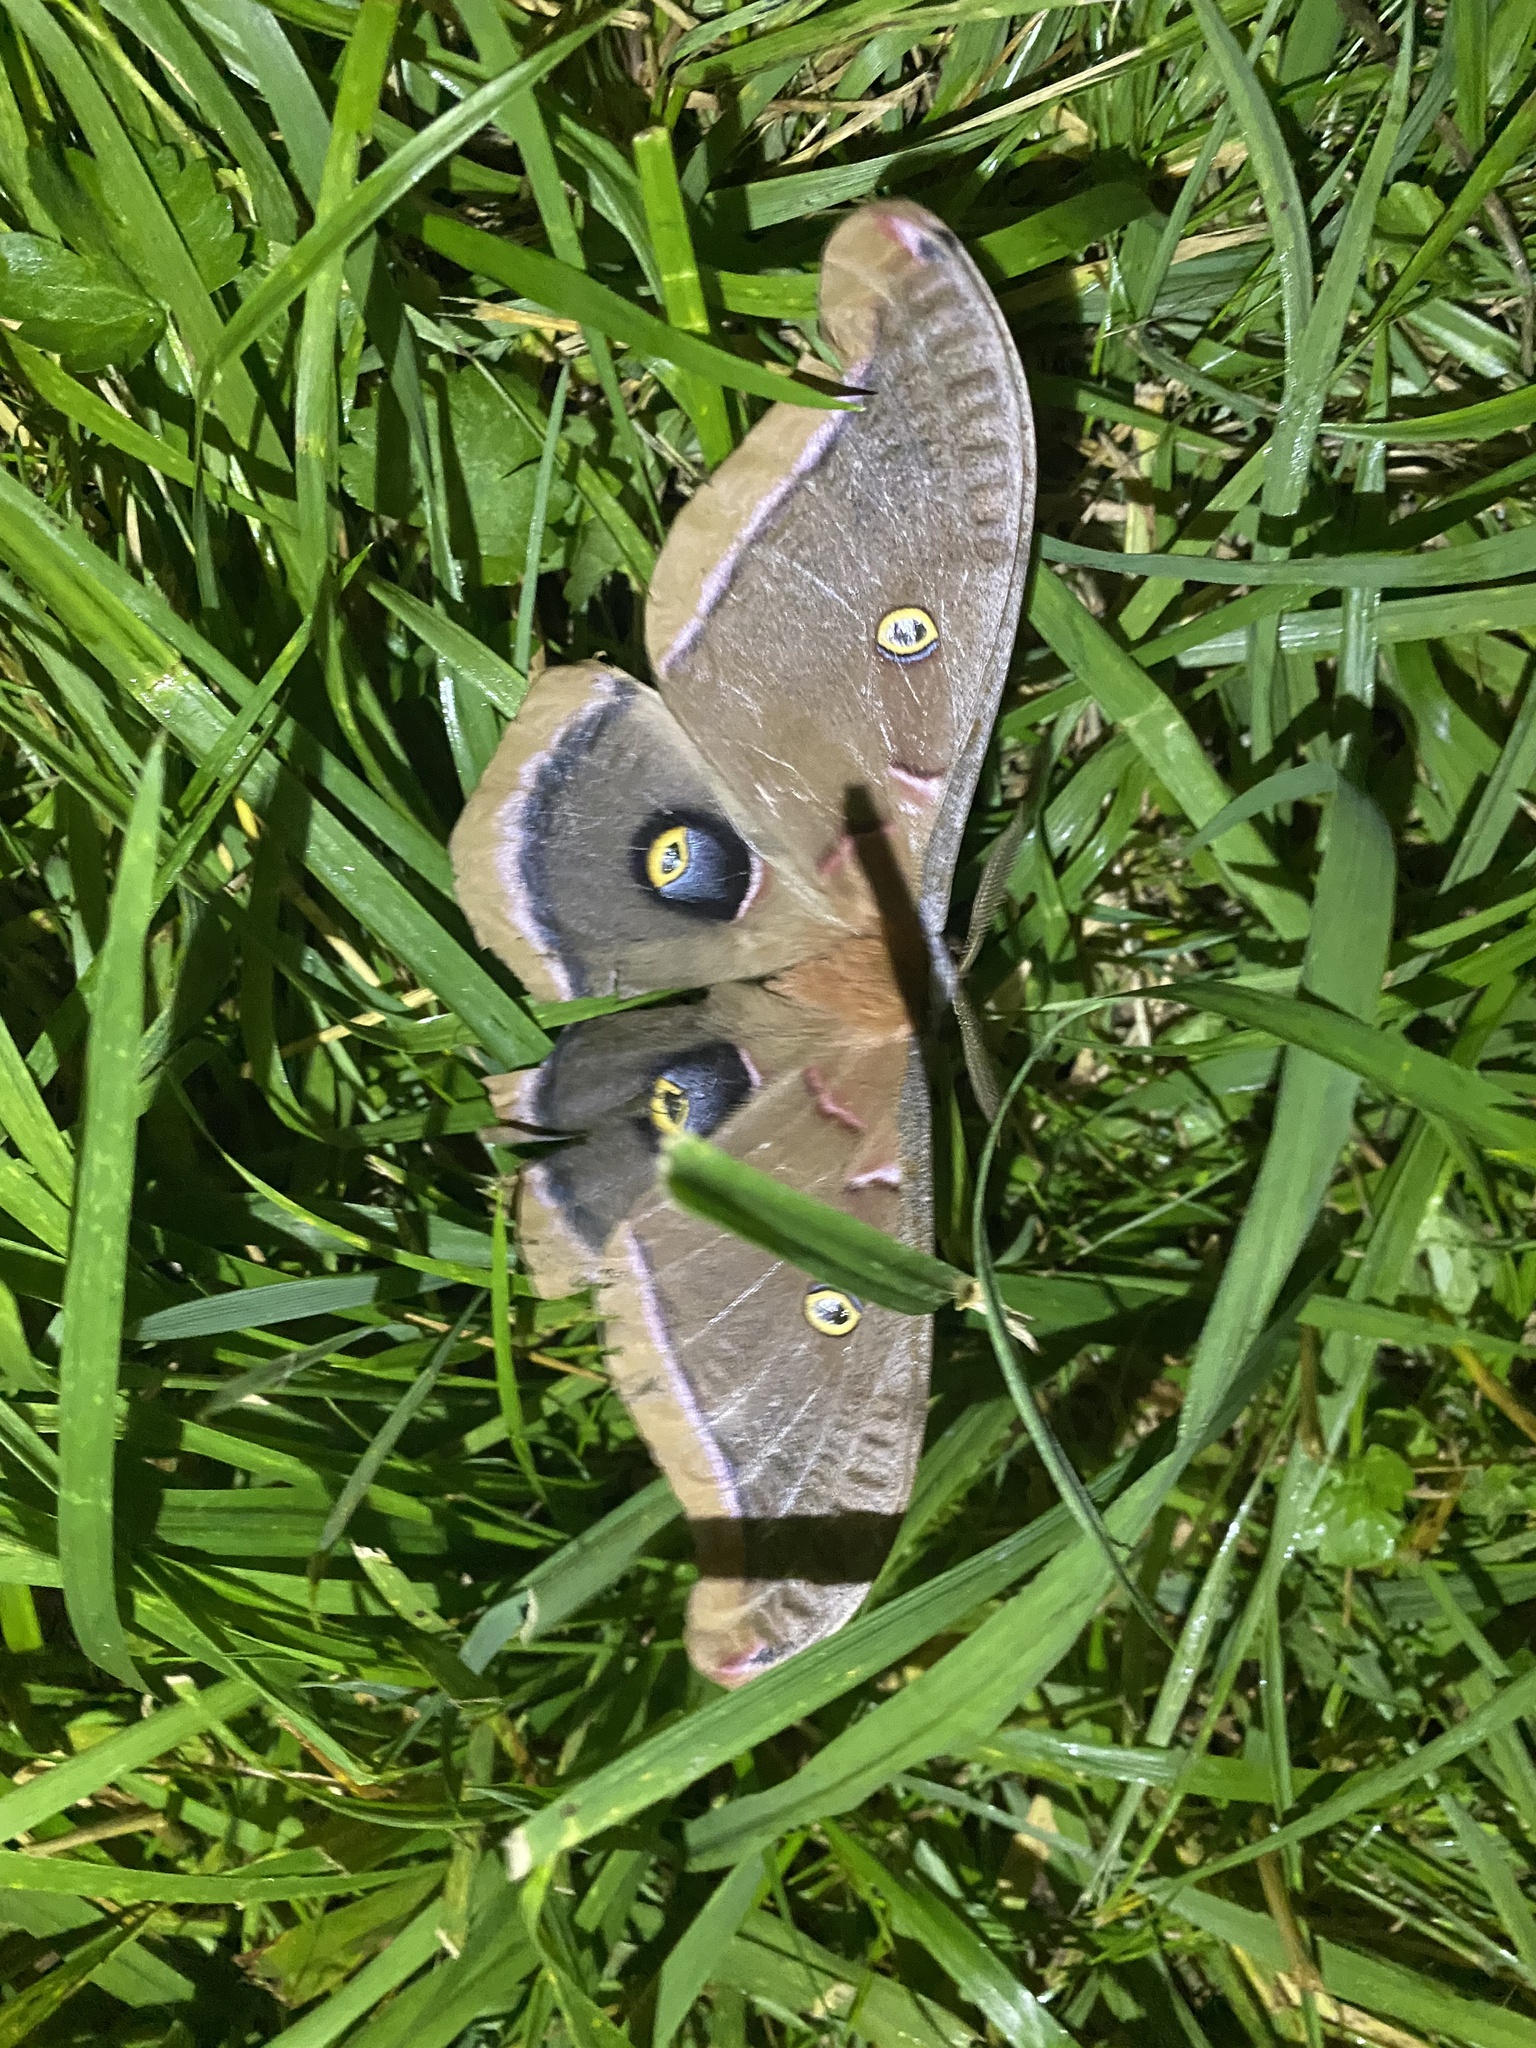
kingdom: Animalia
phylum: Arthropoda
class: Insecta
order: Lepidoptera
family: Saturniidae
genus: Antheraea
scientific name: Antheraea polyphemus
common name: Polyphemus moth
